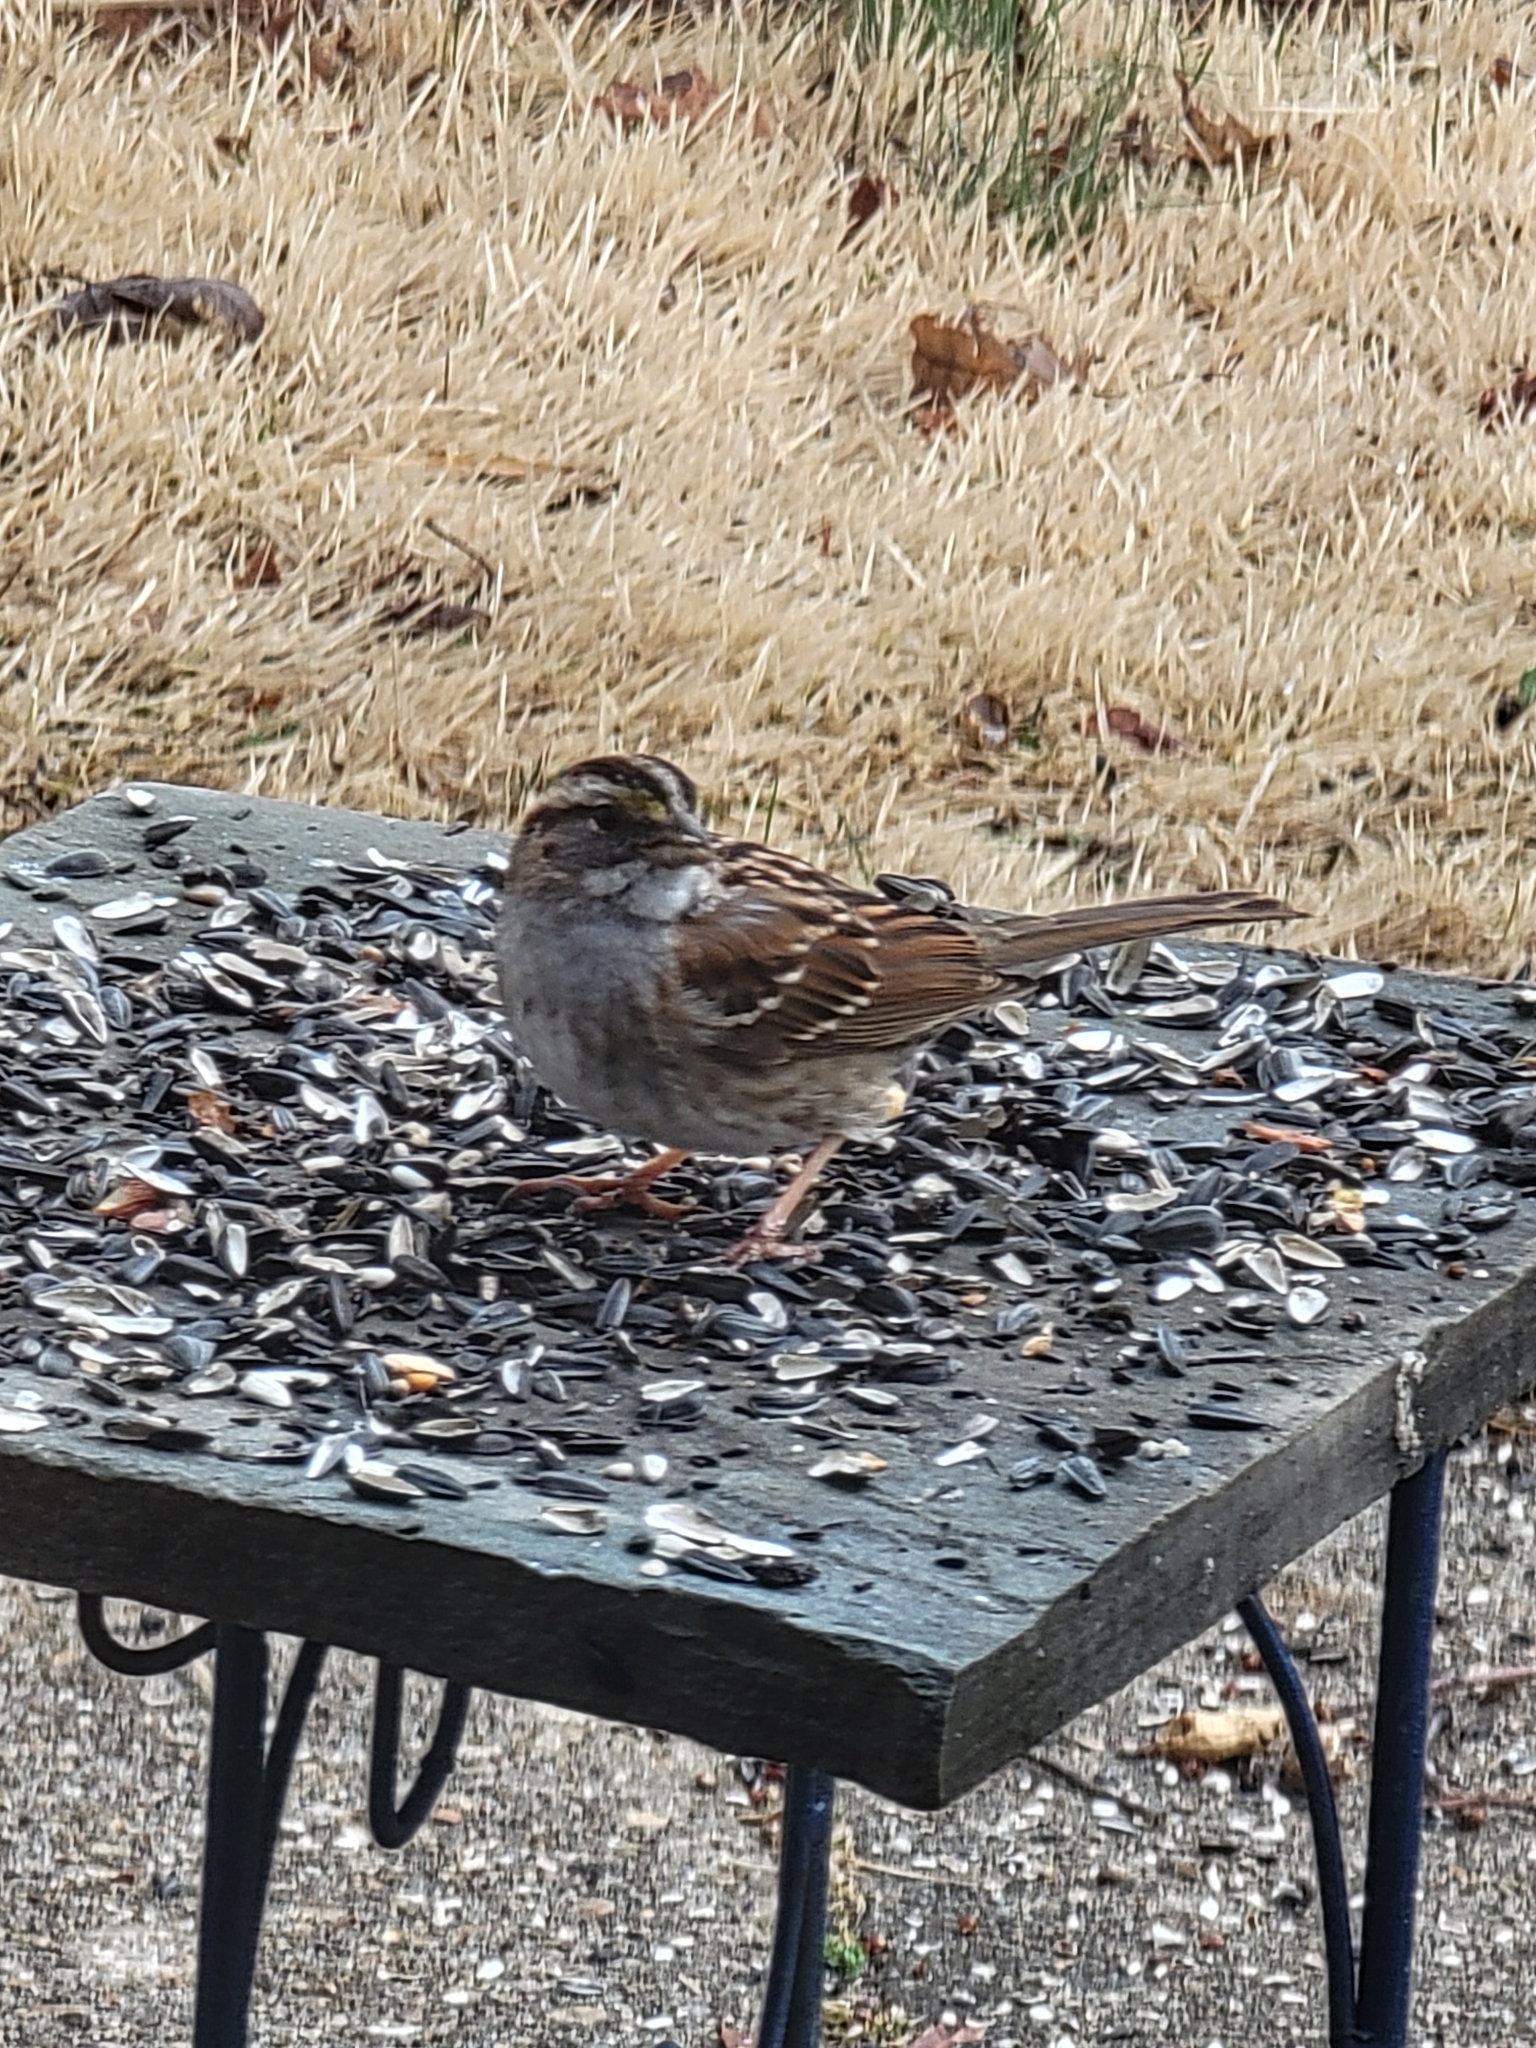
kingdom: Animalia
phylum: Chordata
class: Aves
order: Passeriformes
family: Passerellidae
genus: Zonotrichia
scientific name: Zonotrichia albicollis
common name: White-throated sparrow
